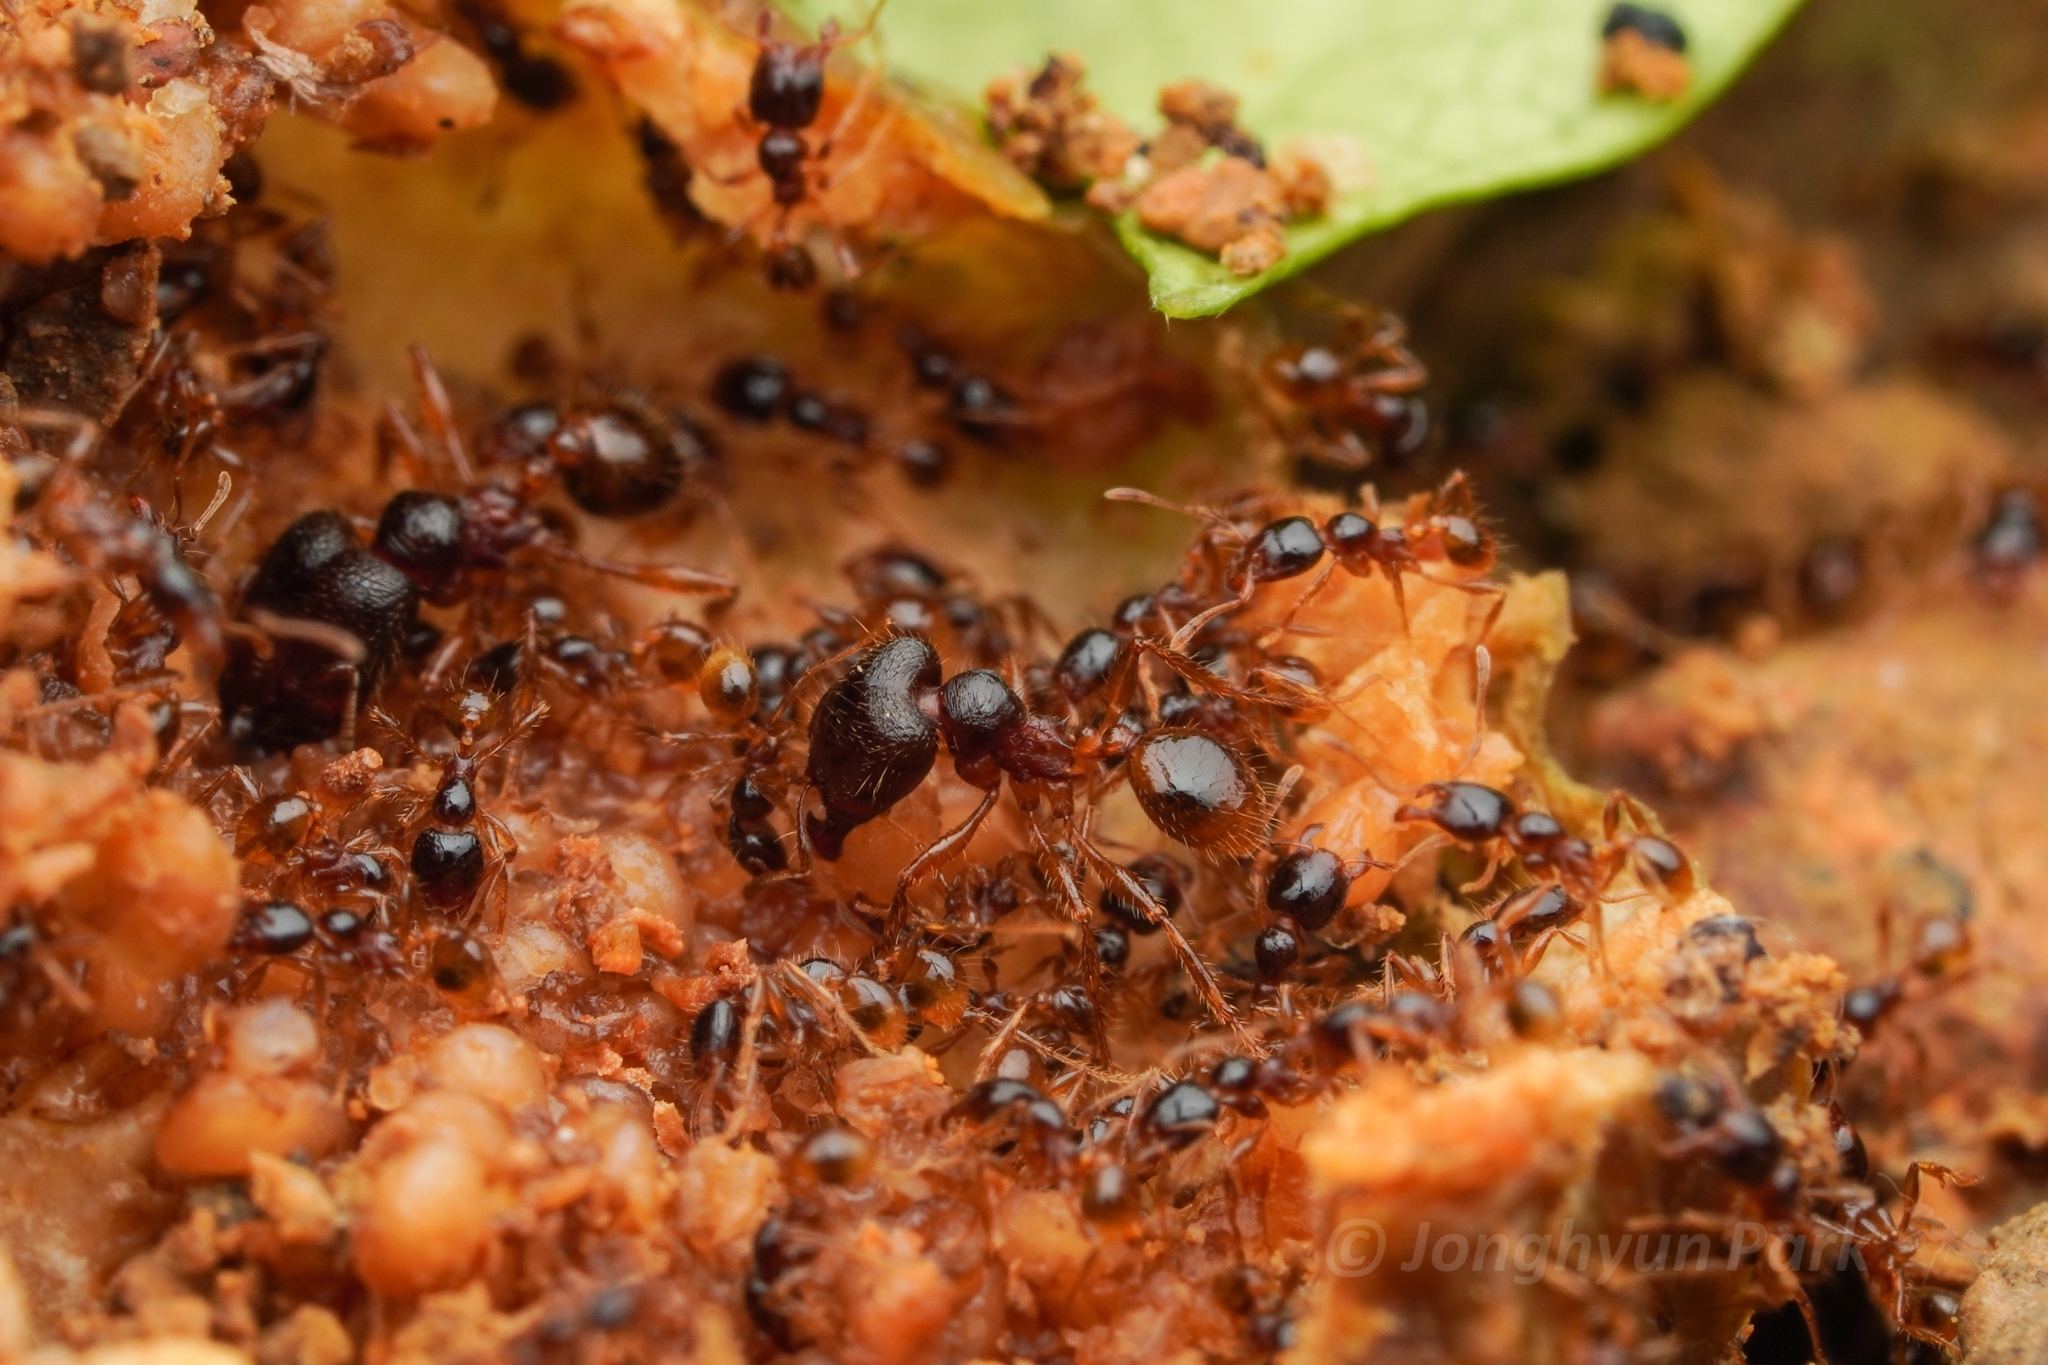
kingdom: Animalia
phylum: Arthropoda
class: Insecta
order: Hymenoptera
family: Formicidae
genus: Carebara
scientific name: Carebara affinis
